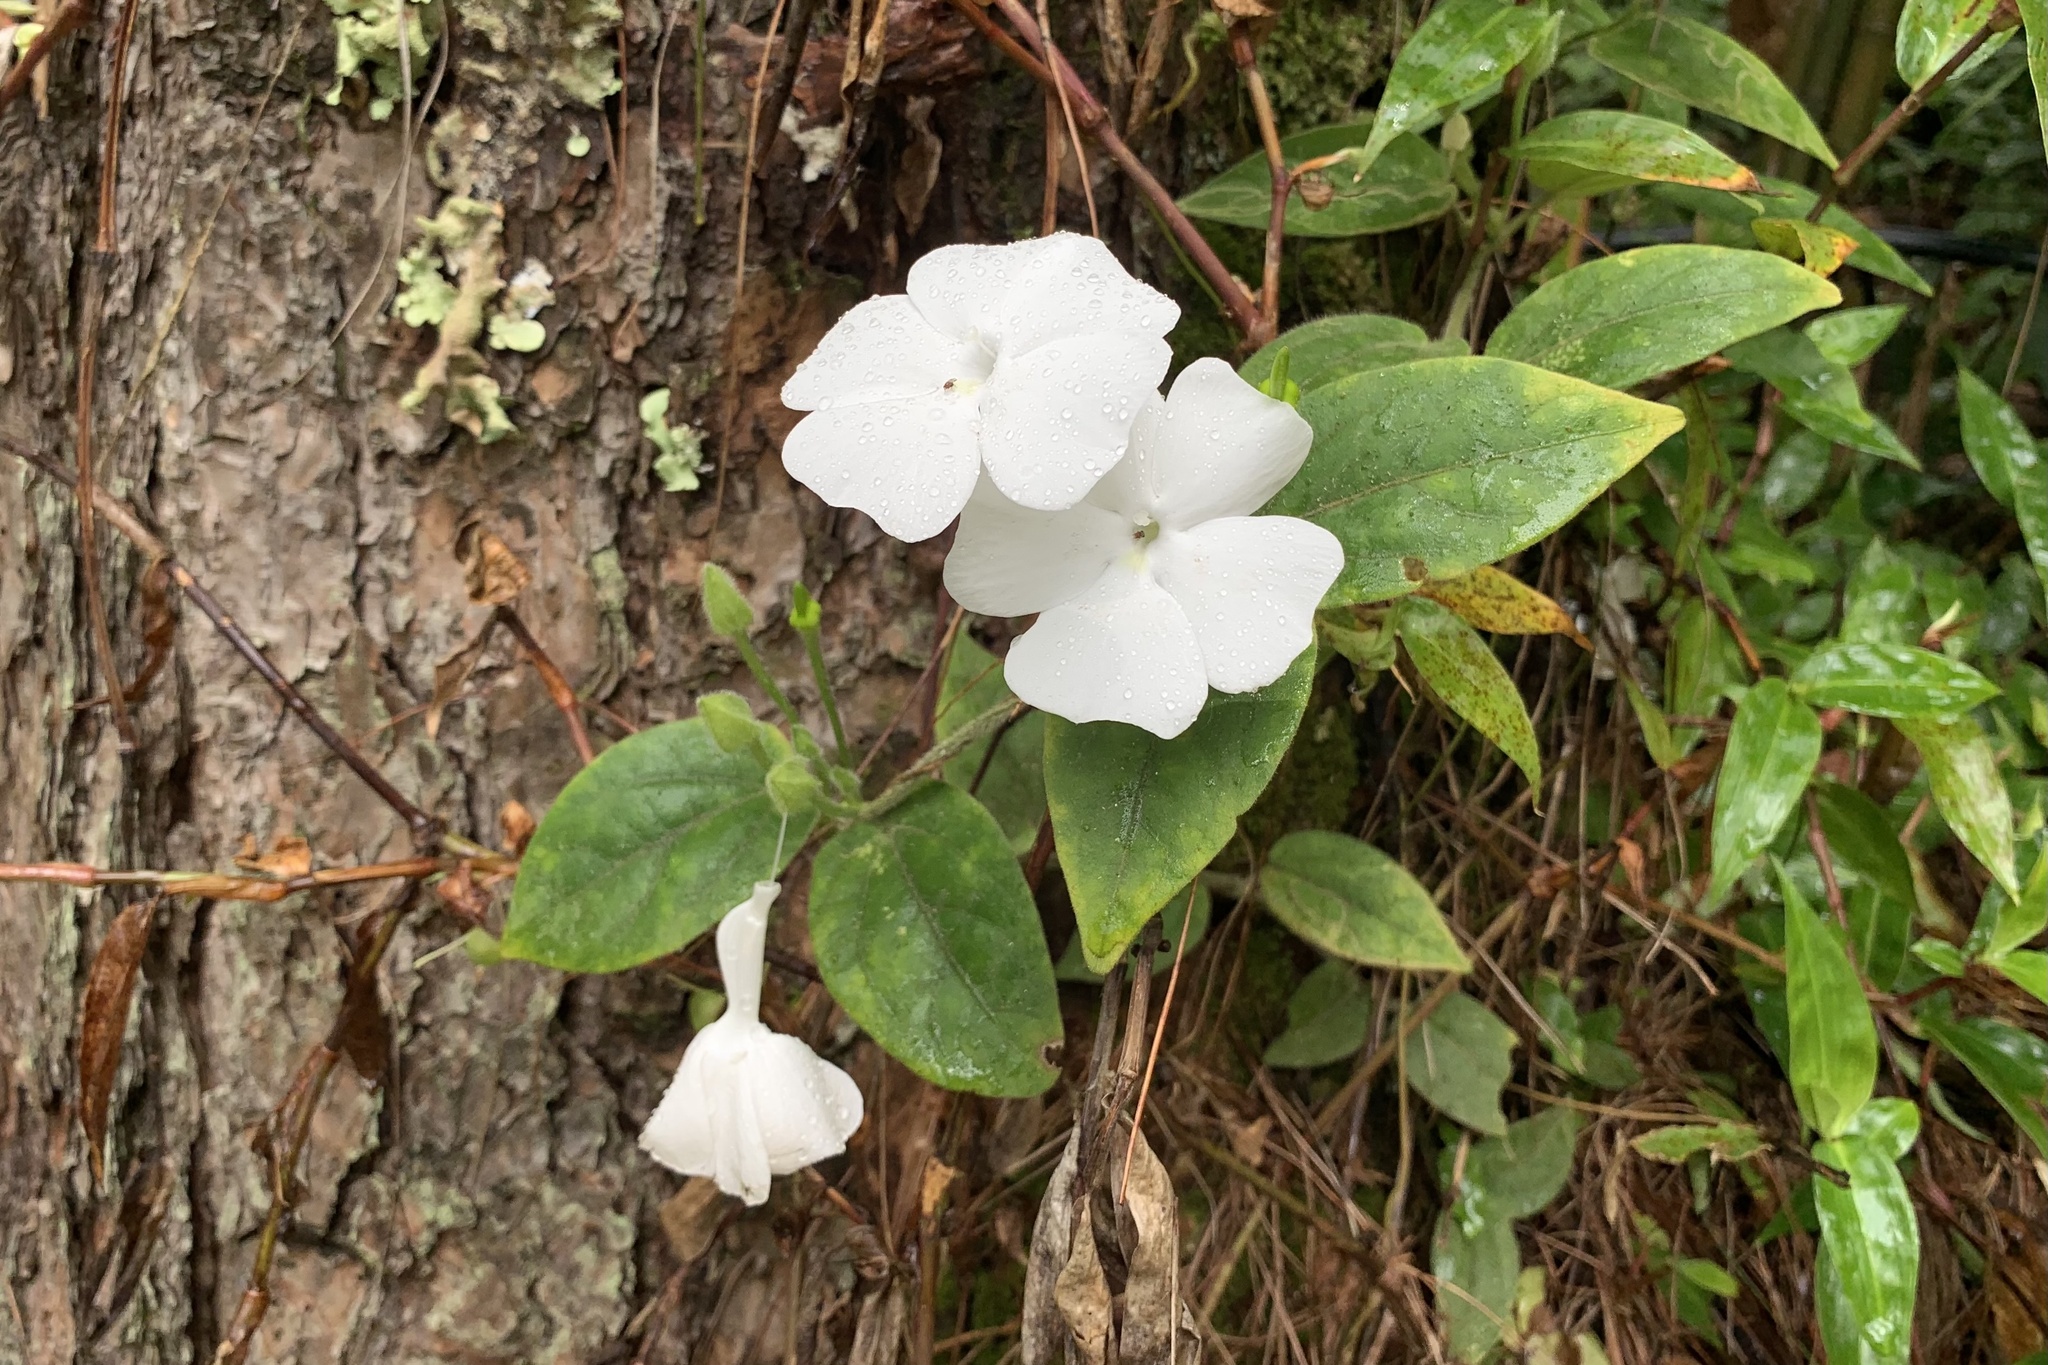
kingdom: Plantae
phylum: Tracheophyta
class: Magnoliopsida
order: Lamiales
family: Acanthaceae
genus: Thunbergia
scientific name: Thunbergia fragrans
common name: Whitelady
